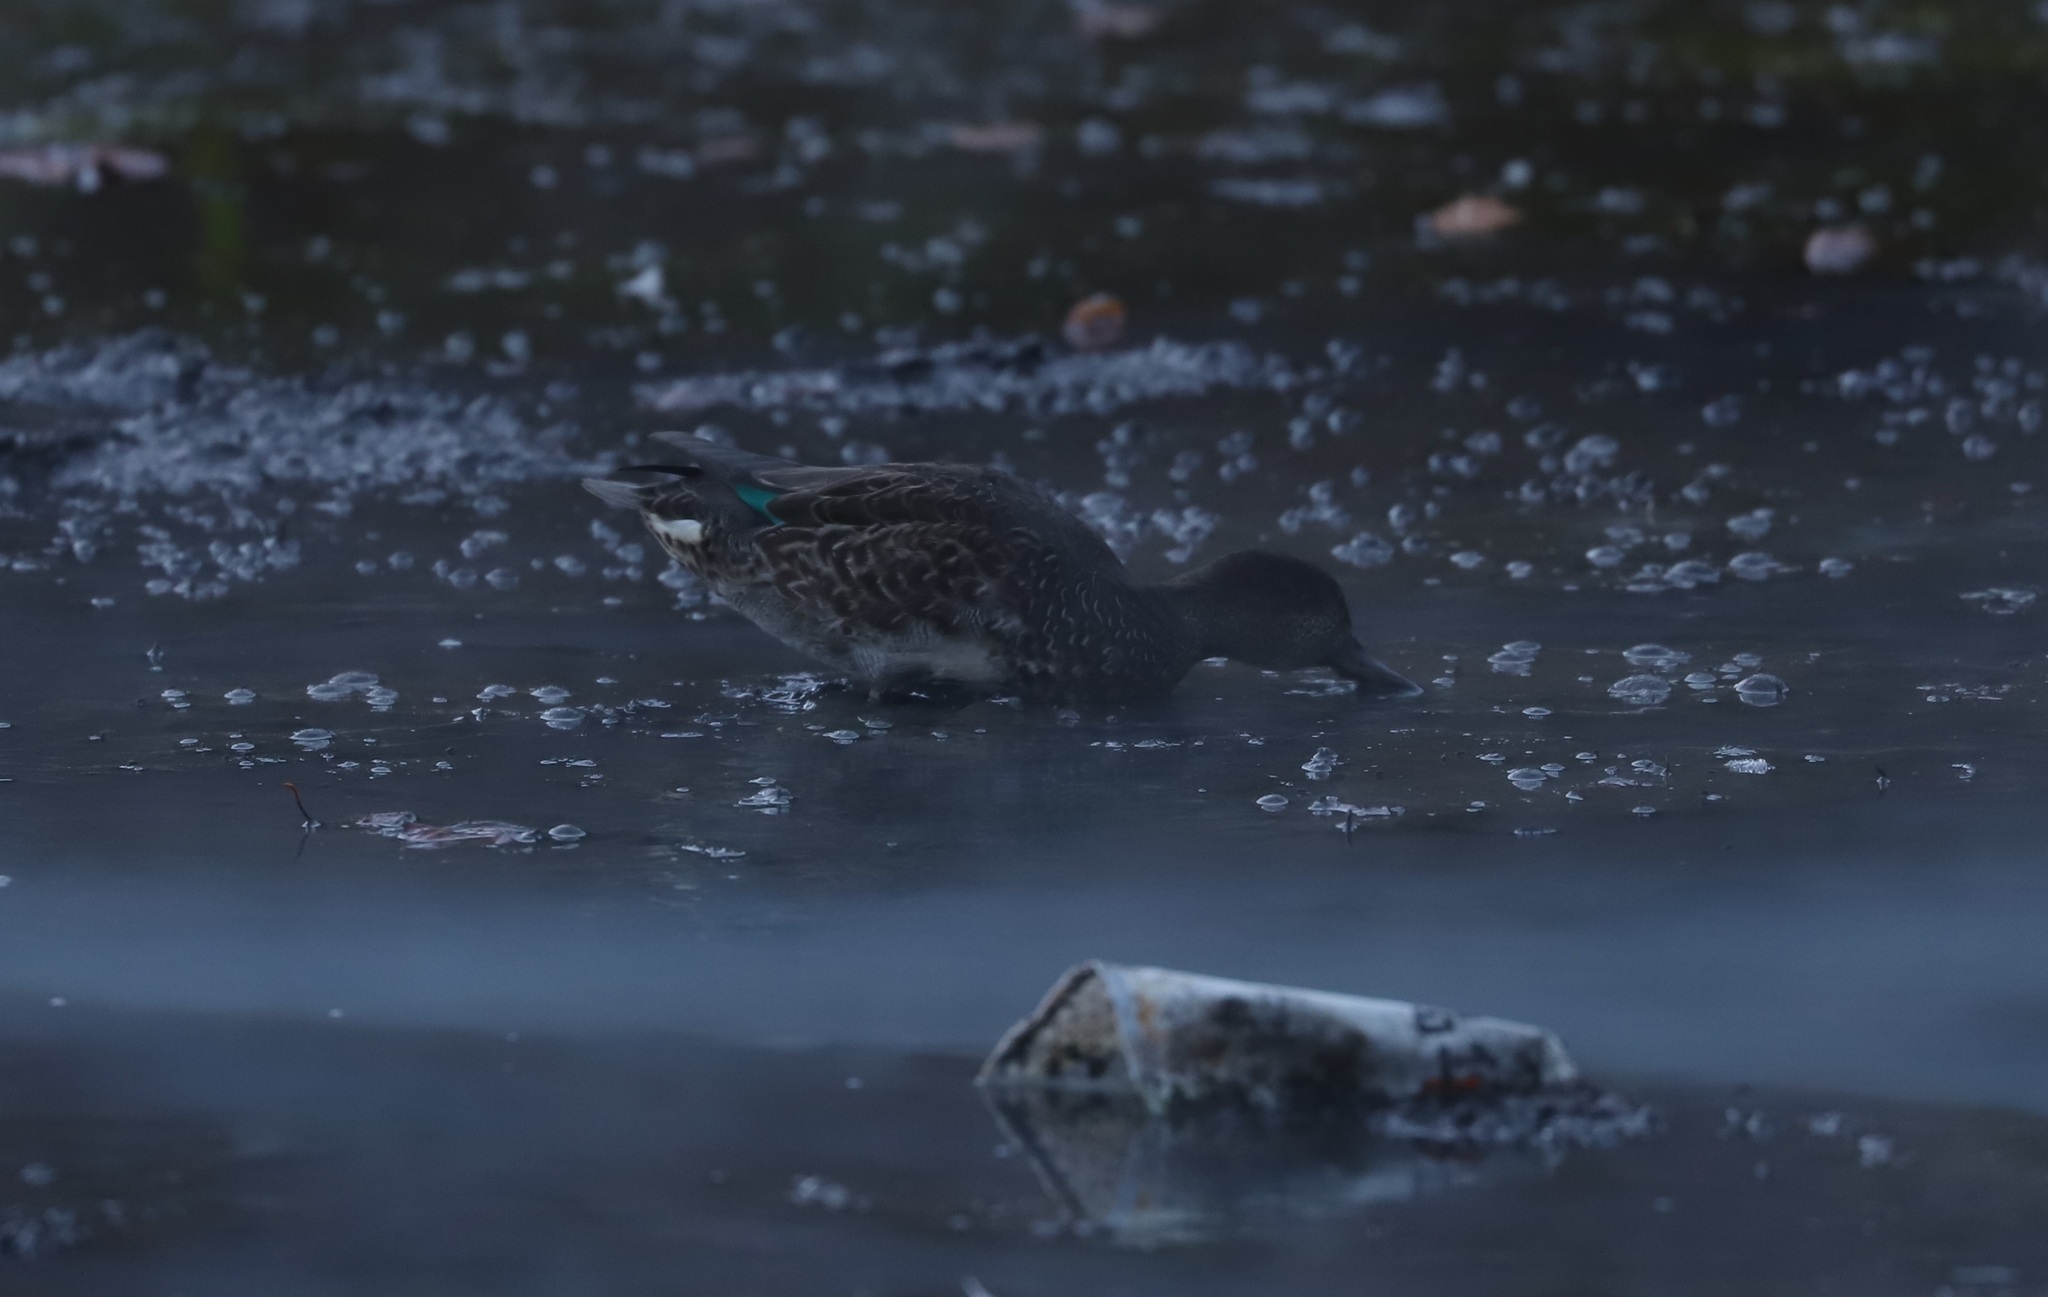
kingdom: Animalia
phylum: Chordata
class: Aves
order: Anseriformes
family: Anatidae
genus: Anas
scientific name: Anas crecca
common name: Eurasian teal
